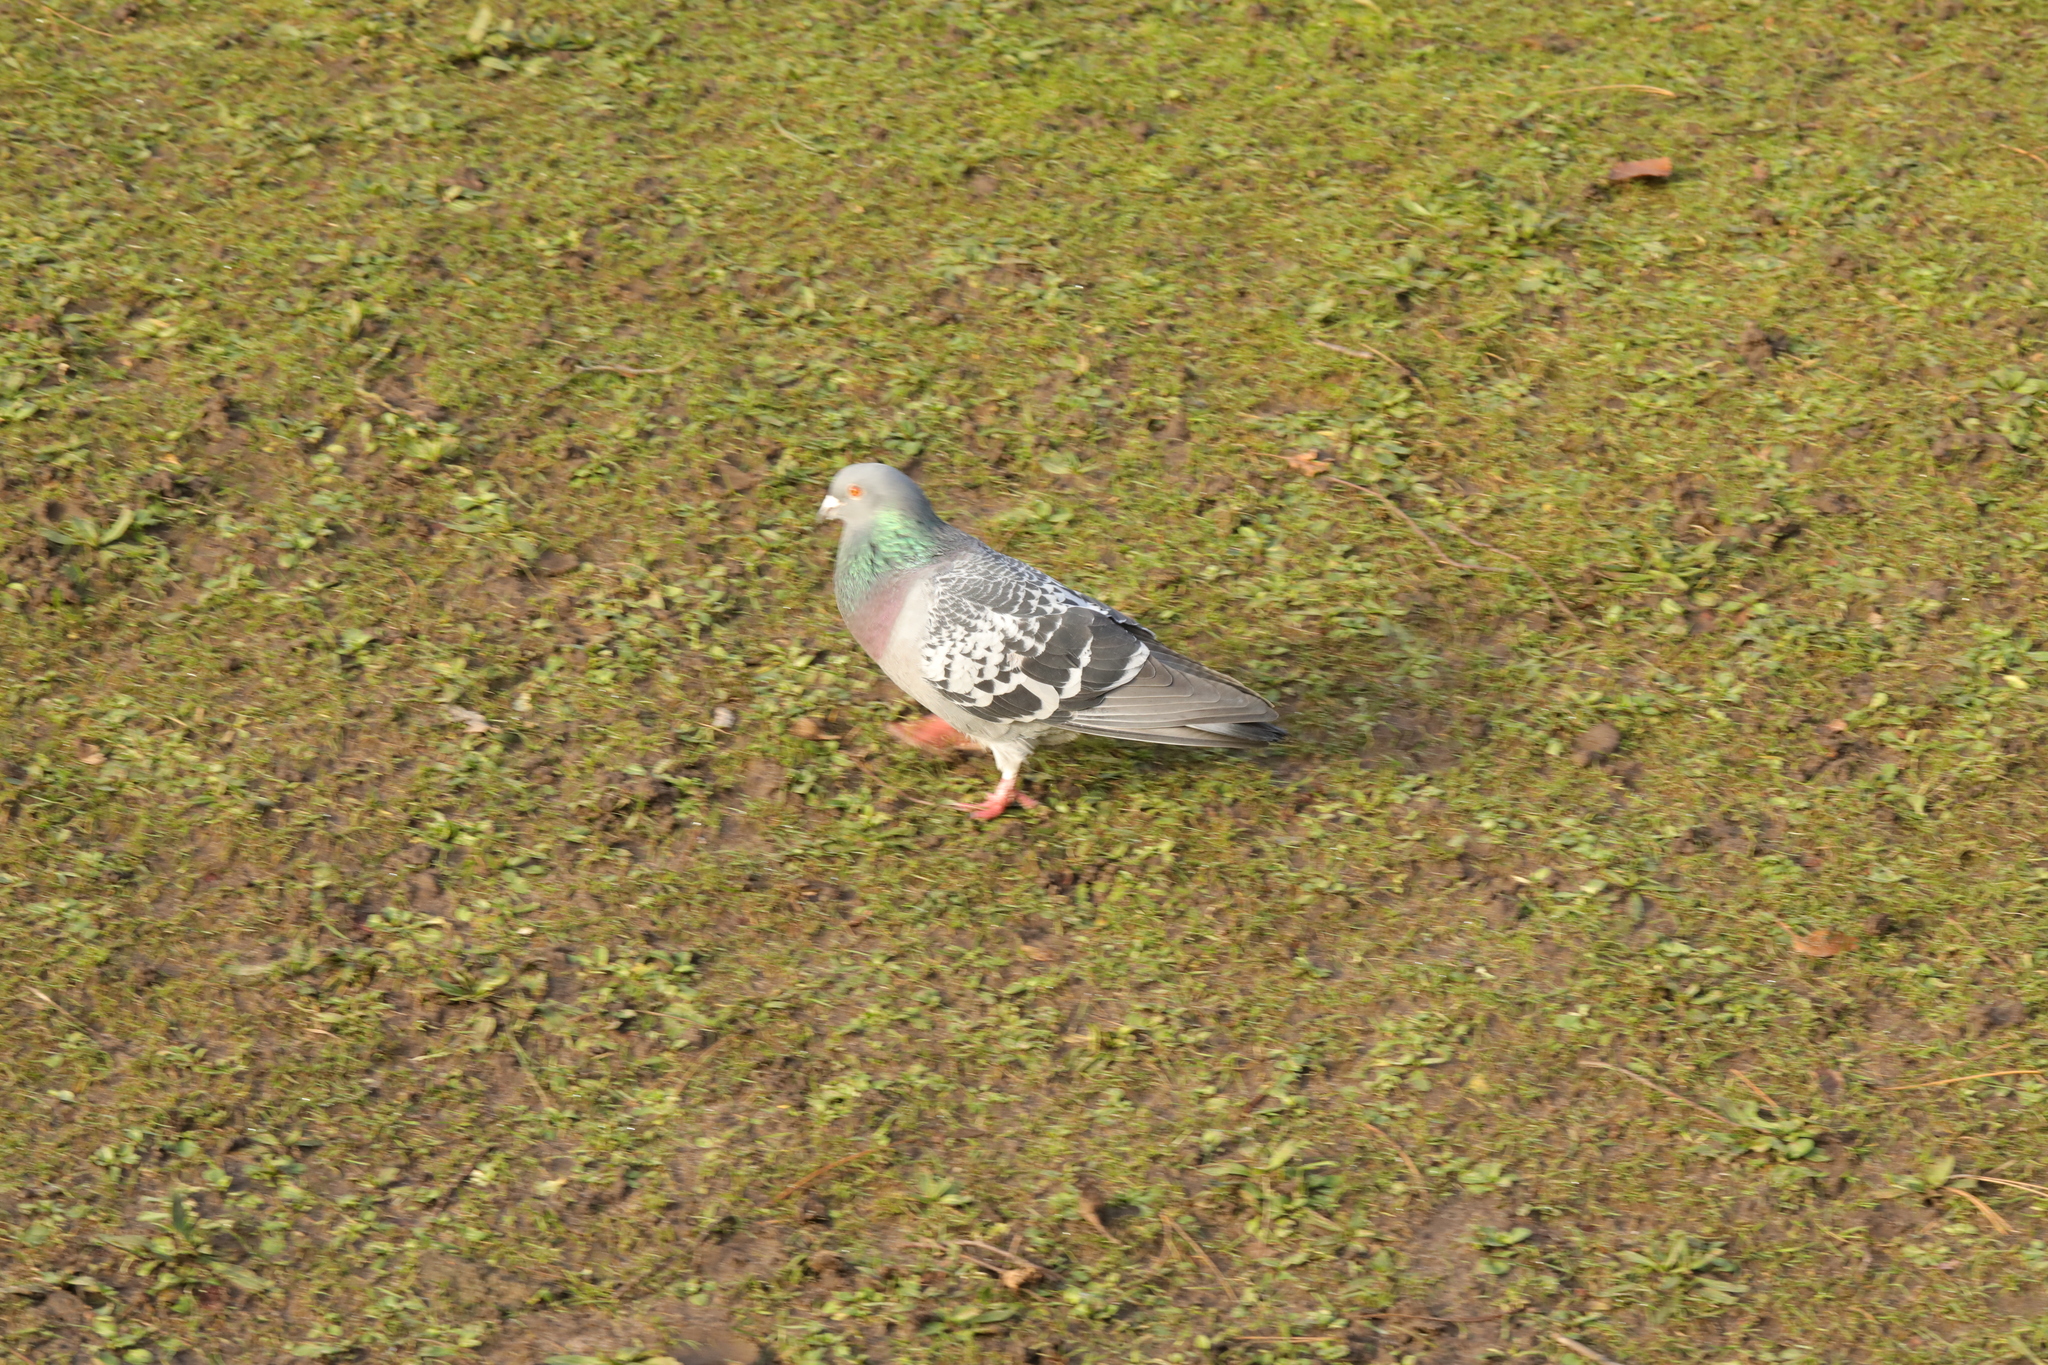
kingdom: Animalia
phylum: Chordata
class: Aves
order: Columbiformes
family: Columbidae
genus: Columba
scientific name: Columba livia
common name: Rock pigeon
